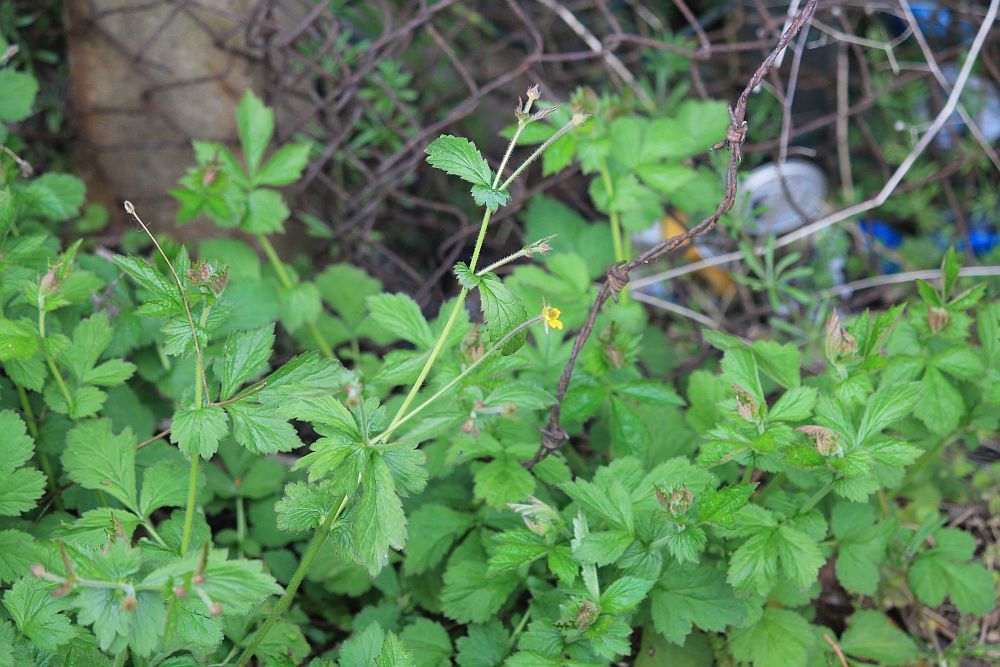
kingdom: Plantae
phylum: Tracheophyta
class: Magnoliopsida
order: Rosales
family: Rosaceae
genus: Geum
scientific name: Geum urbanum
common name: Wood avens
